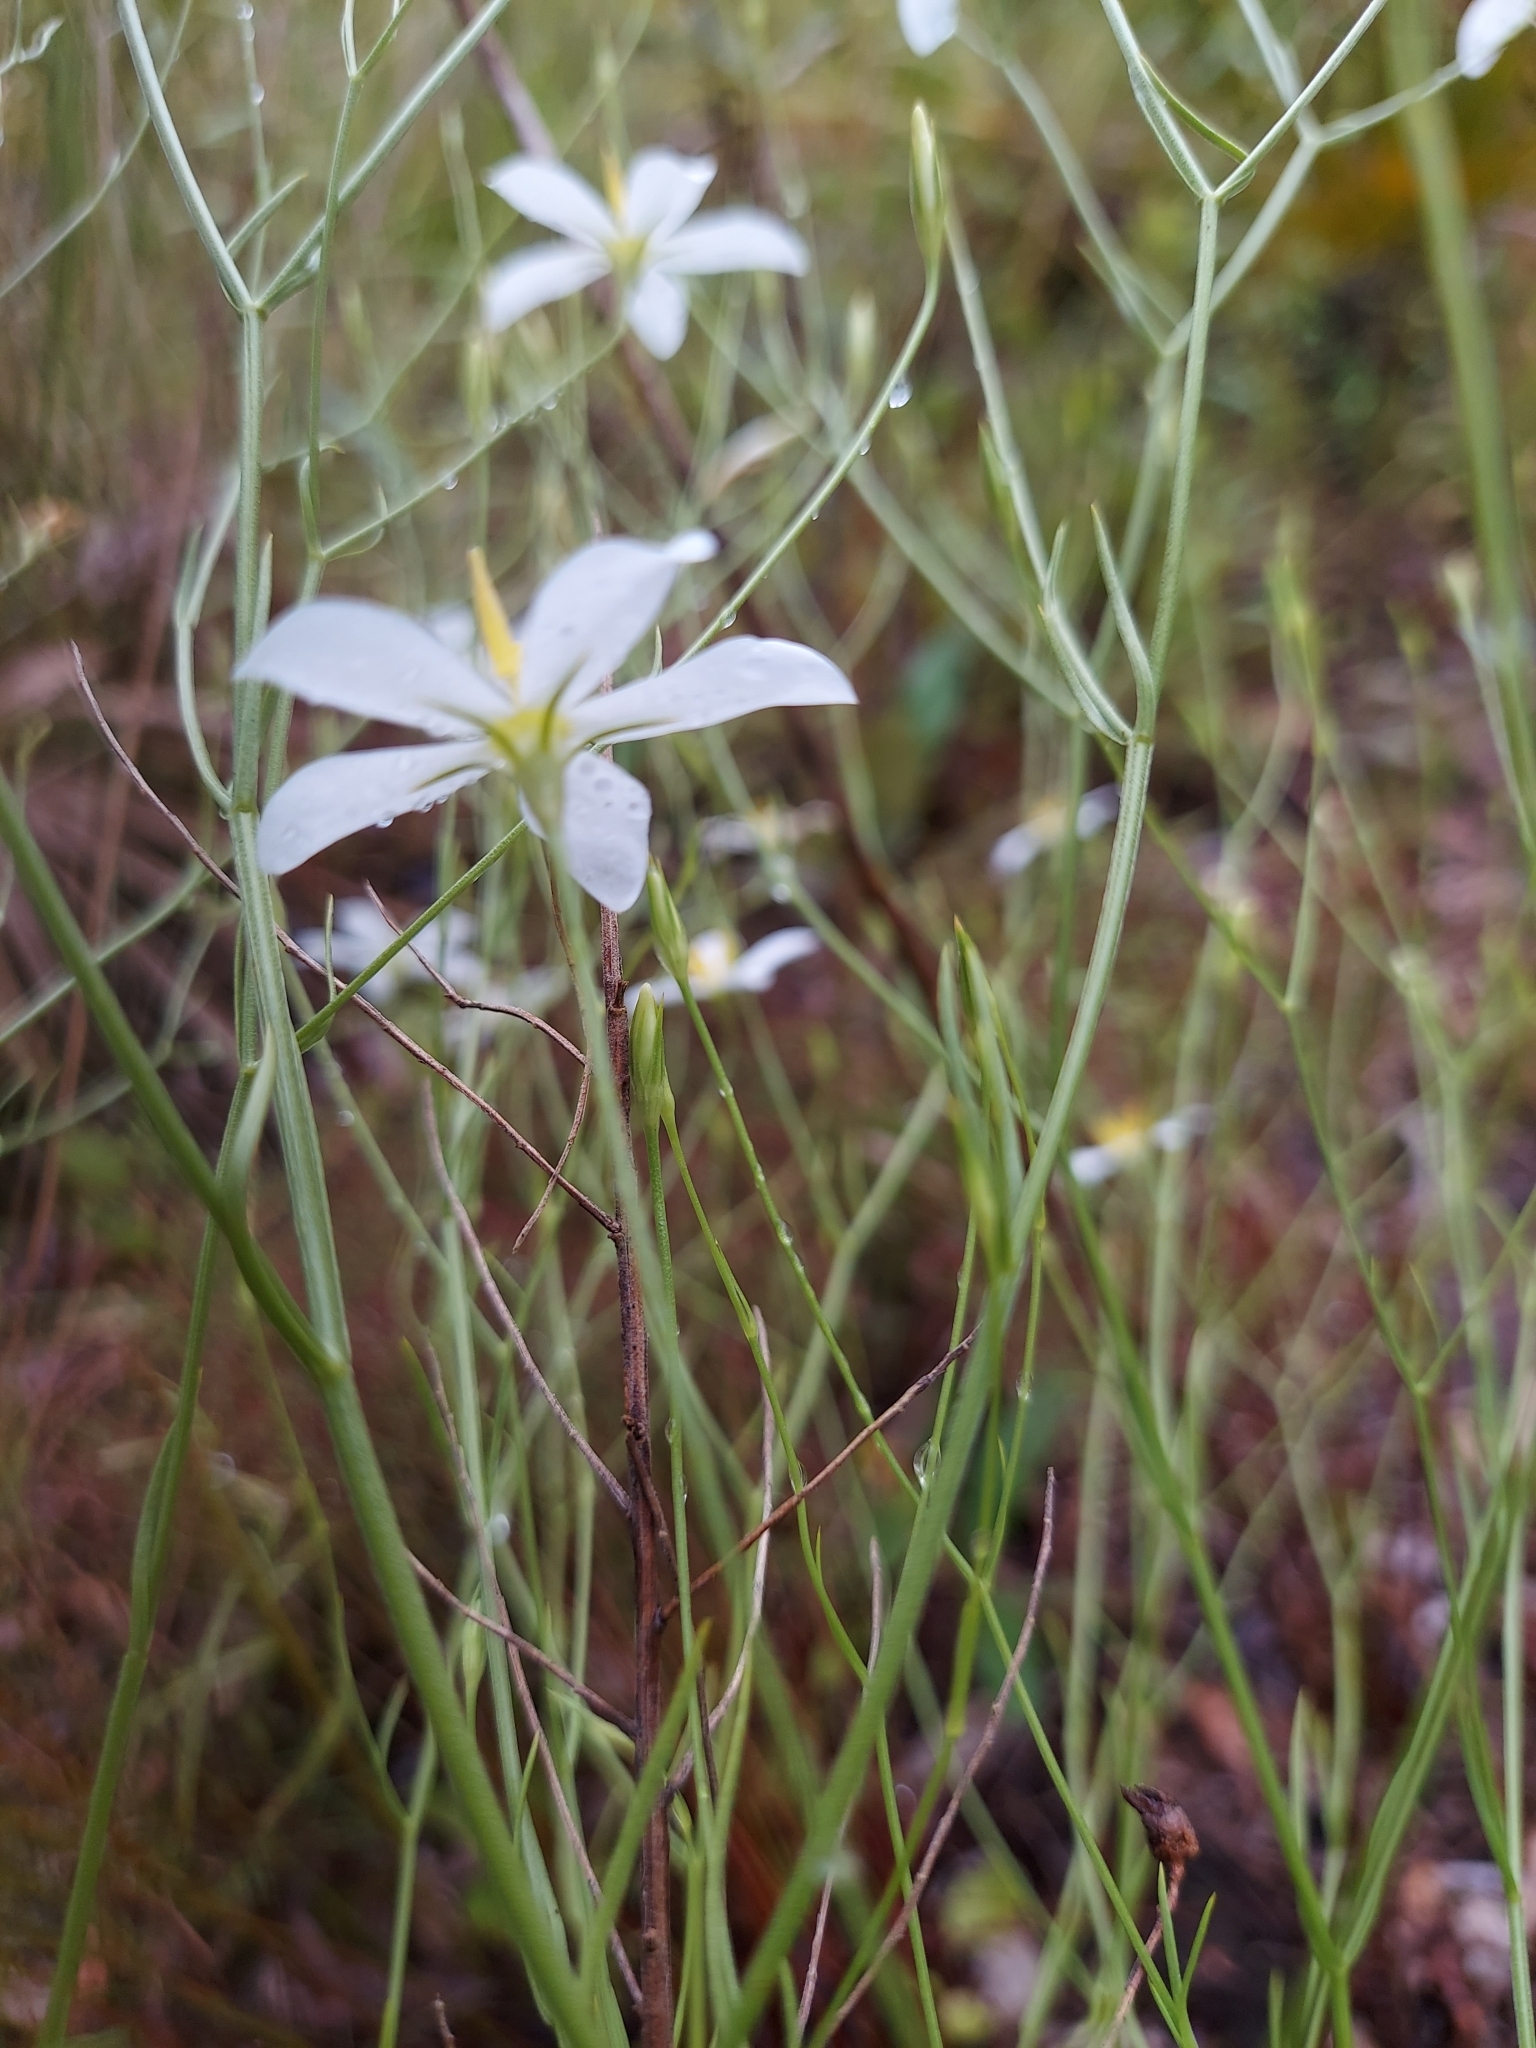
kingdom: Plantae
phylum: Tracheophyta
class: Magnoliopsida
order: Gentianales
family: Gentianaceae
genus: Sabatia
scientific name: Sabatia brevifolia
